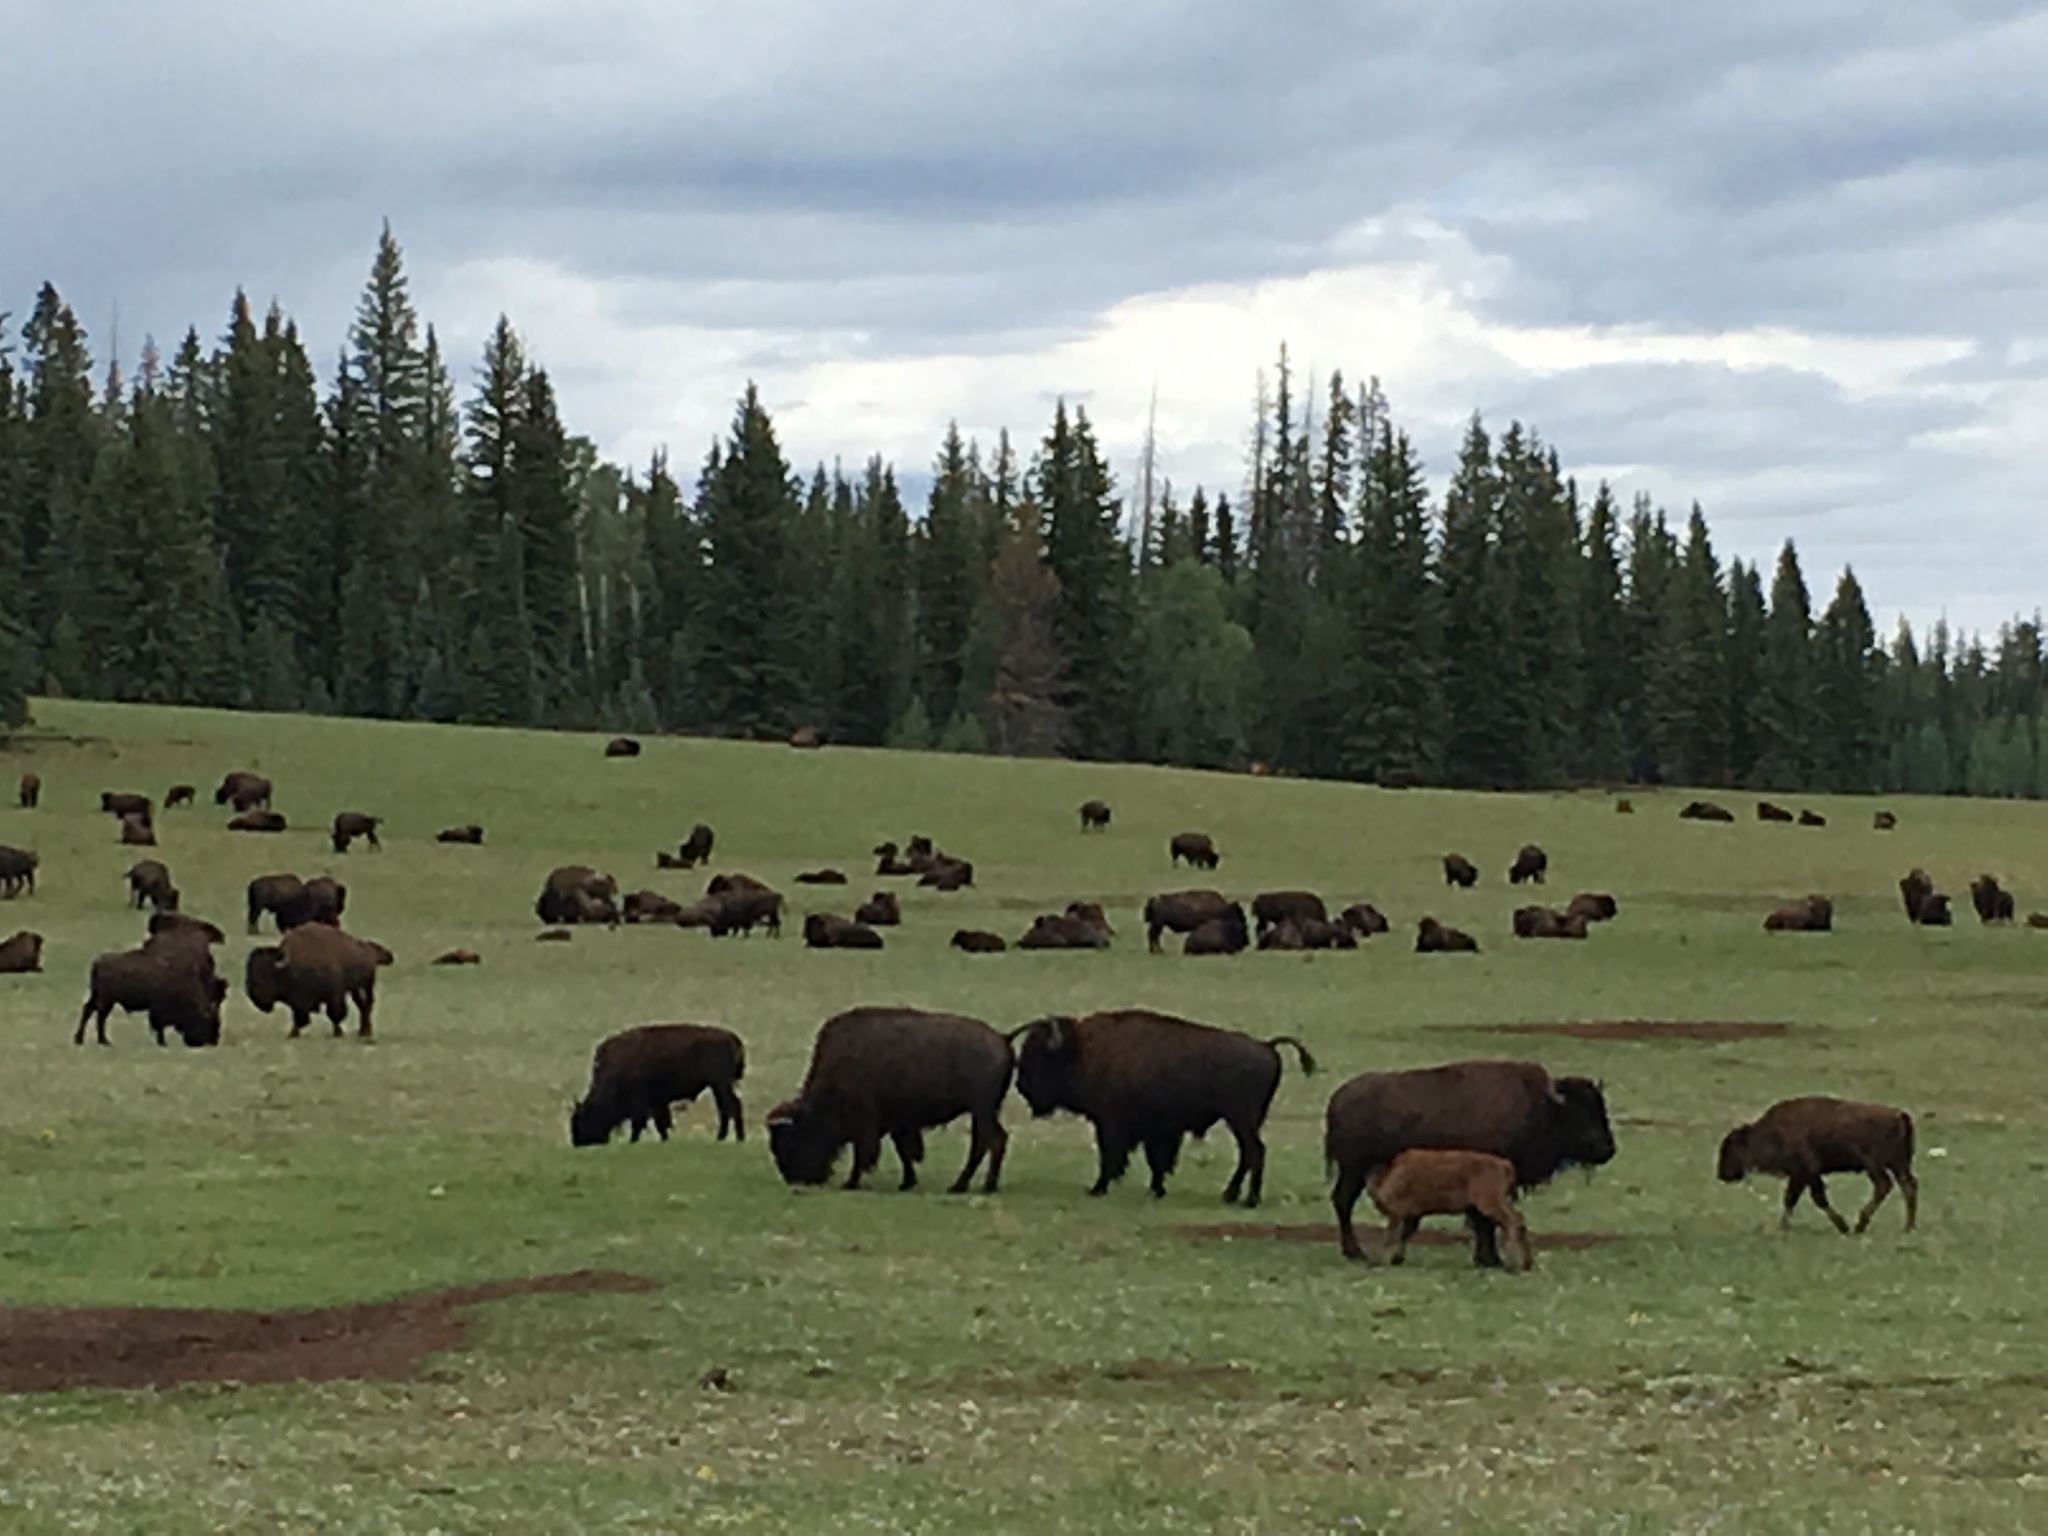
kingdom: Animalia
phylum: Chordata
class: Mammalia
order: Artiodactyla
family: Bovidae
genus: Bison
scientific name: Bison bison
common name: American bison
